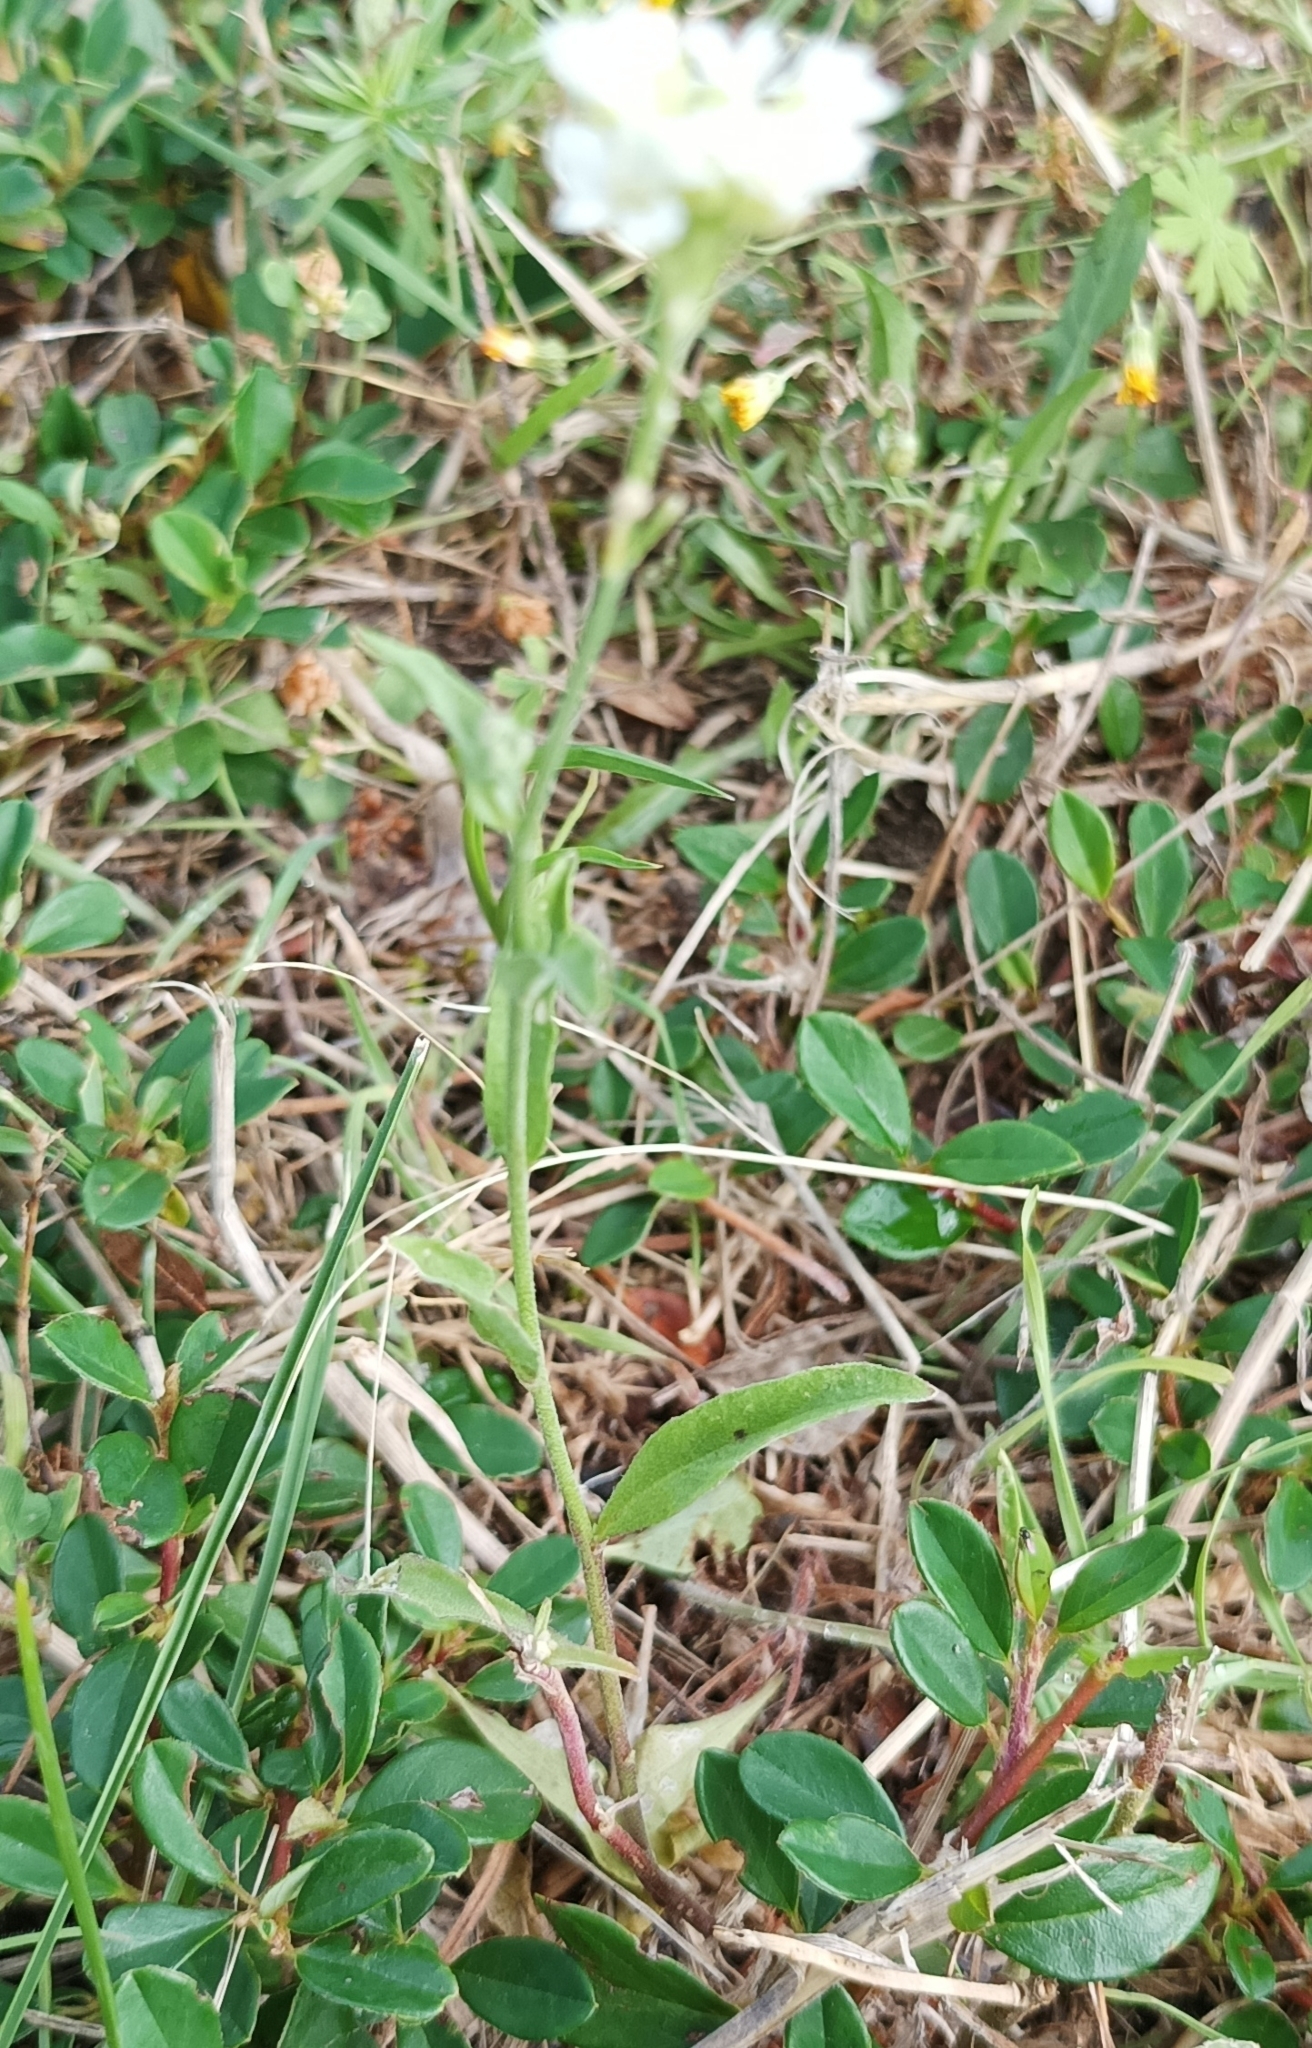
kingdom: Plantae
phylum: Tracheophyta
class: Magnoliopsida
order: Brassicales
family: Brassicaceae
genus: Berteroa
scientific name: Berteroa incana
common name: Hoary alison
